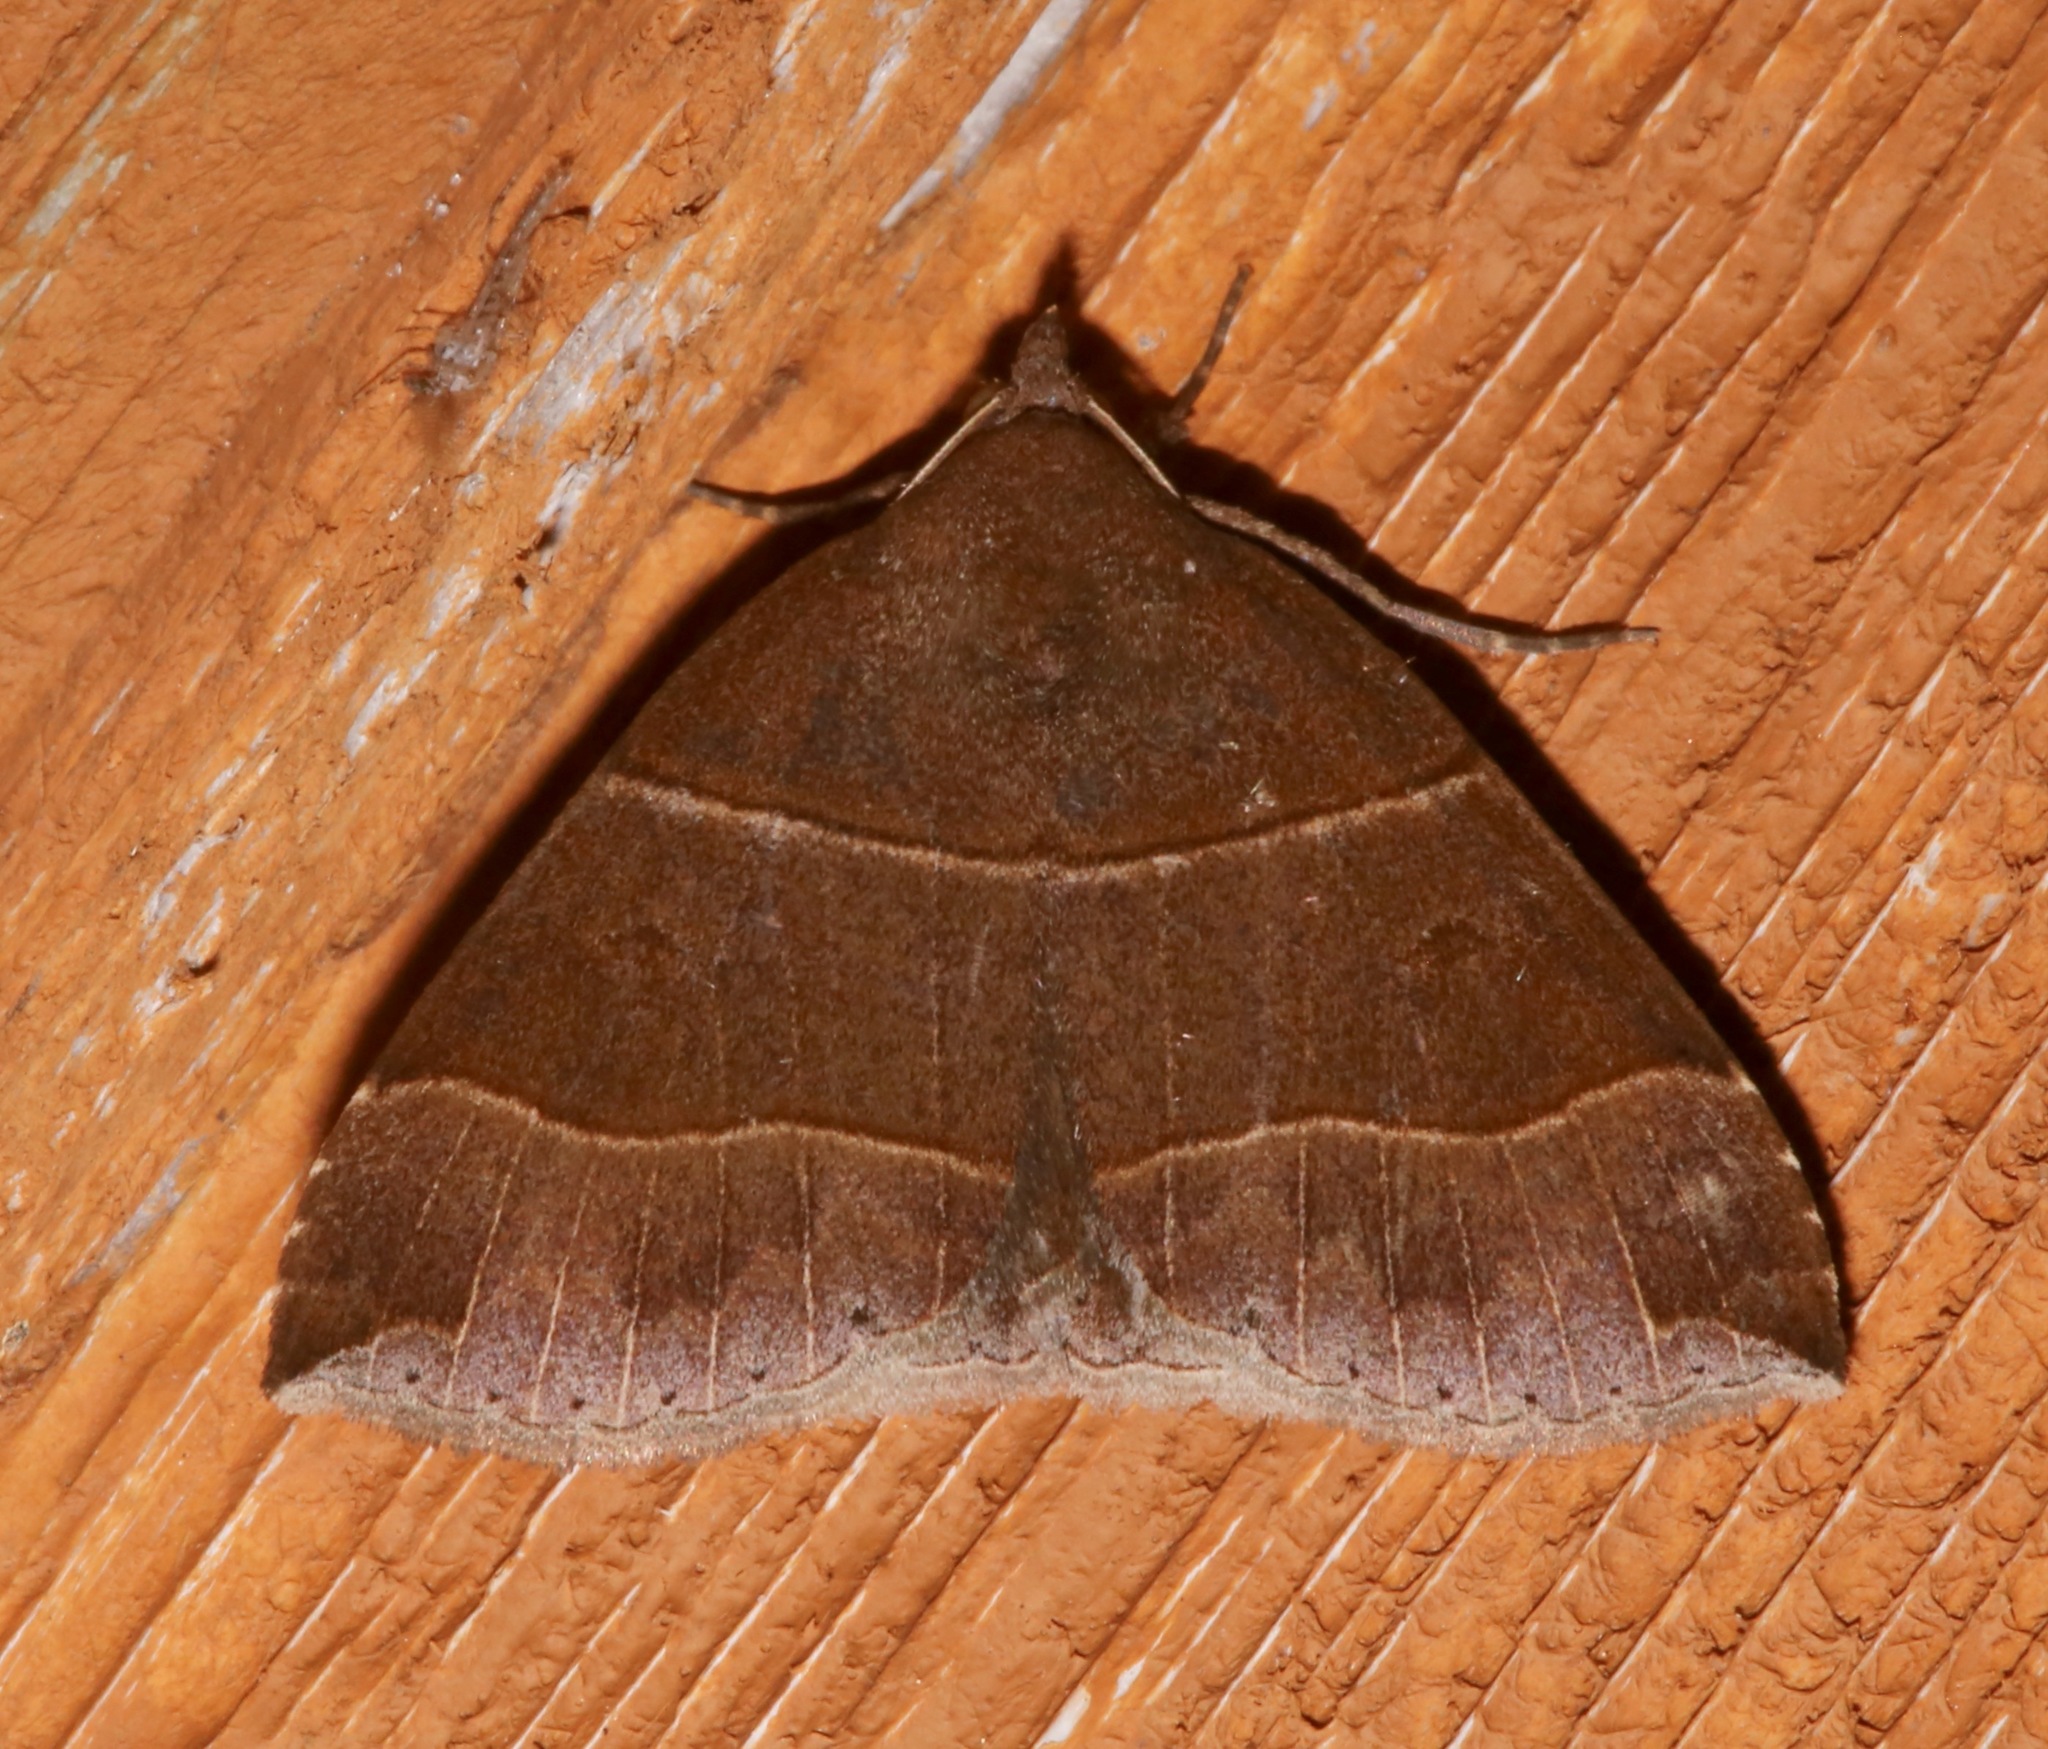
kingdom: Animalia
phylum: Arthropoda
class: Insecta
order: Lepidoptera
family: Erebidae
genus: Parallelia
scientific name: Parallelia bistriaris
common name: Maple looper moth
